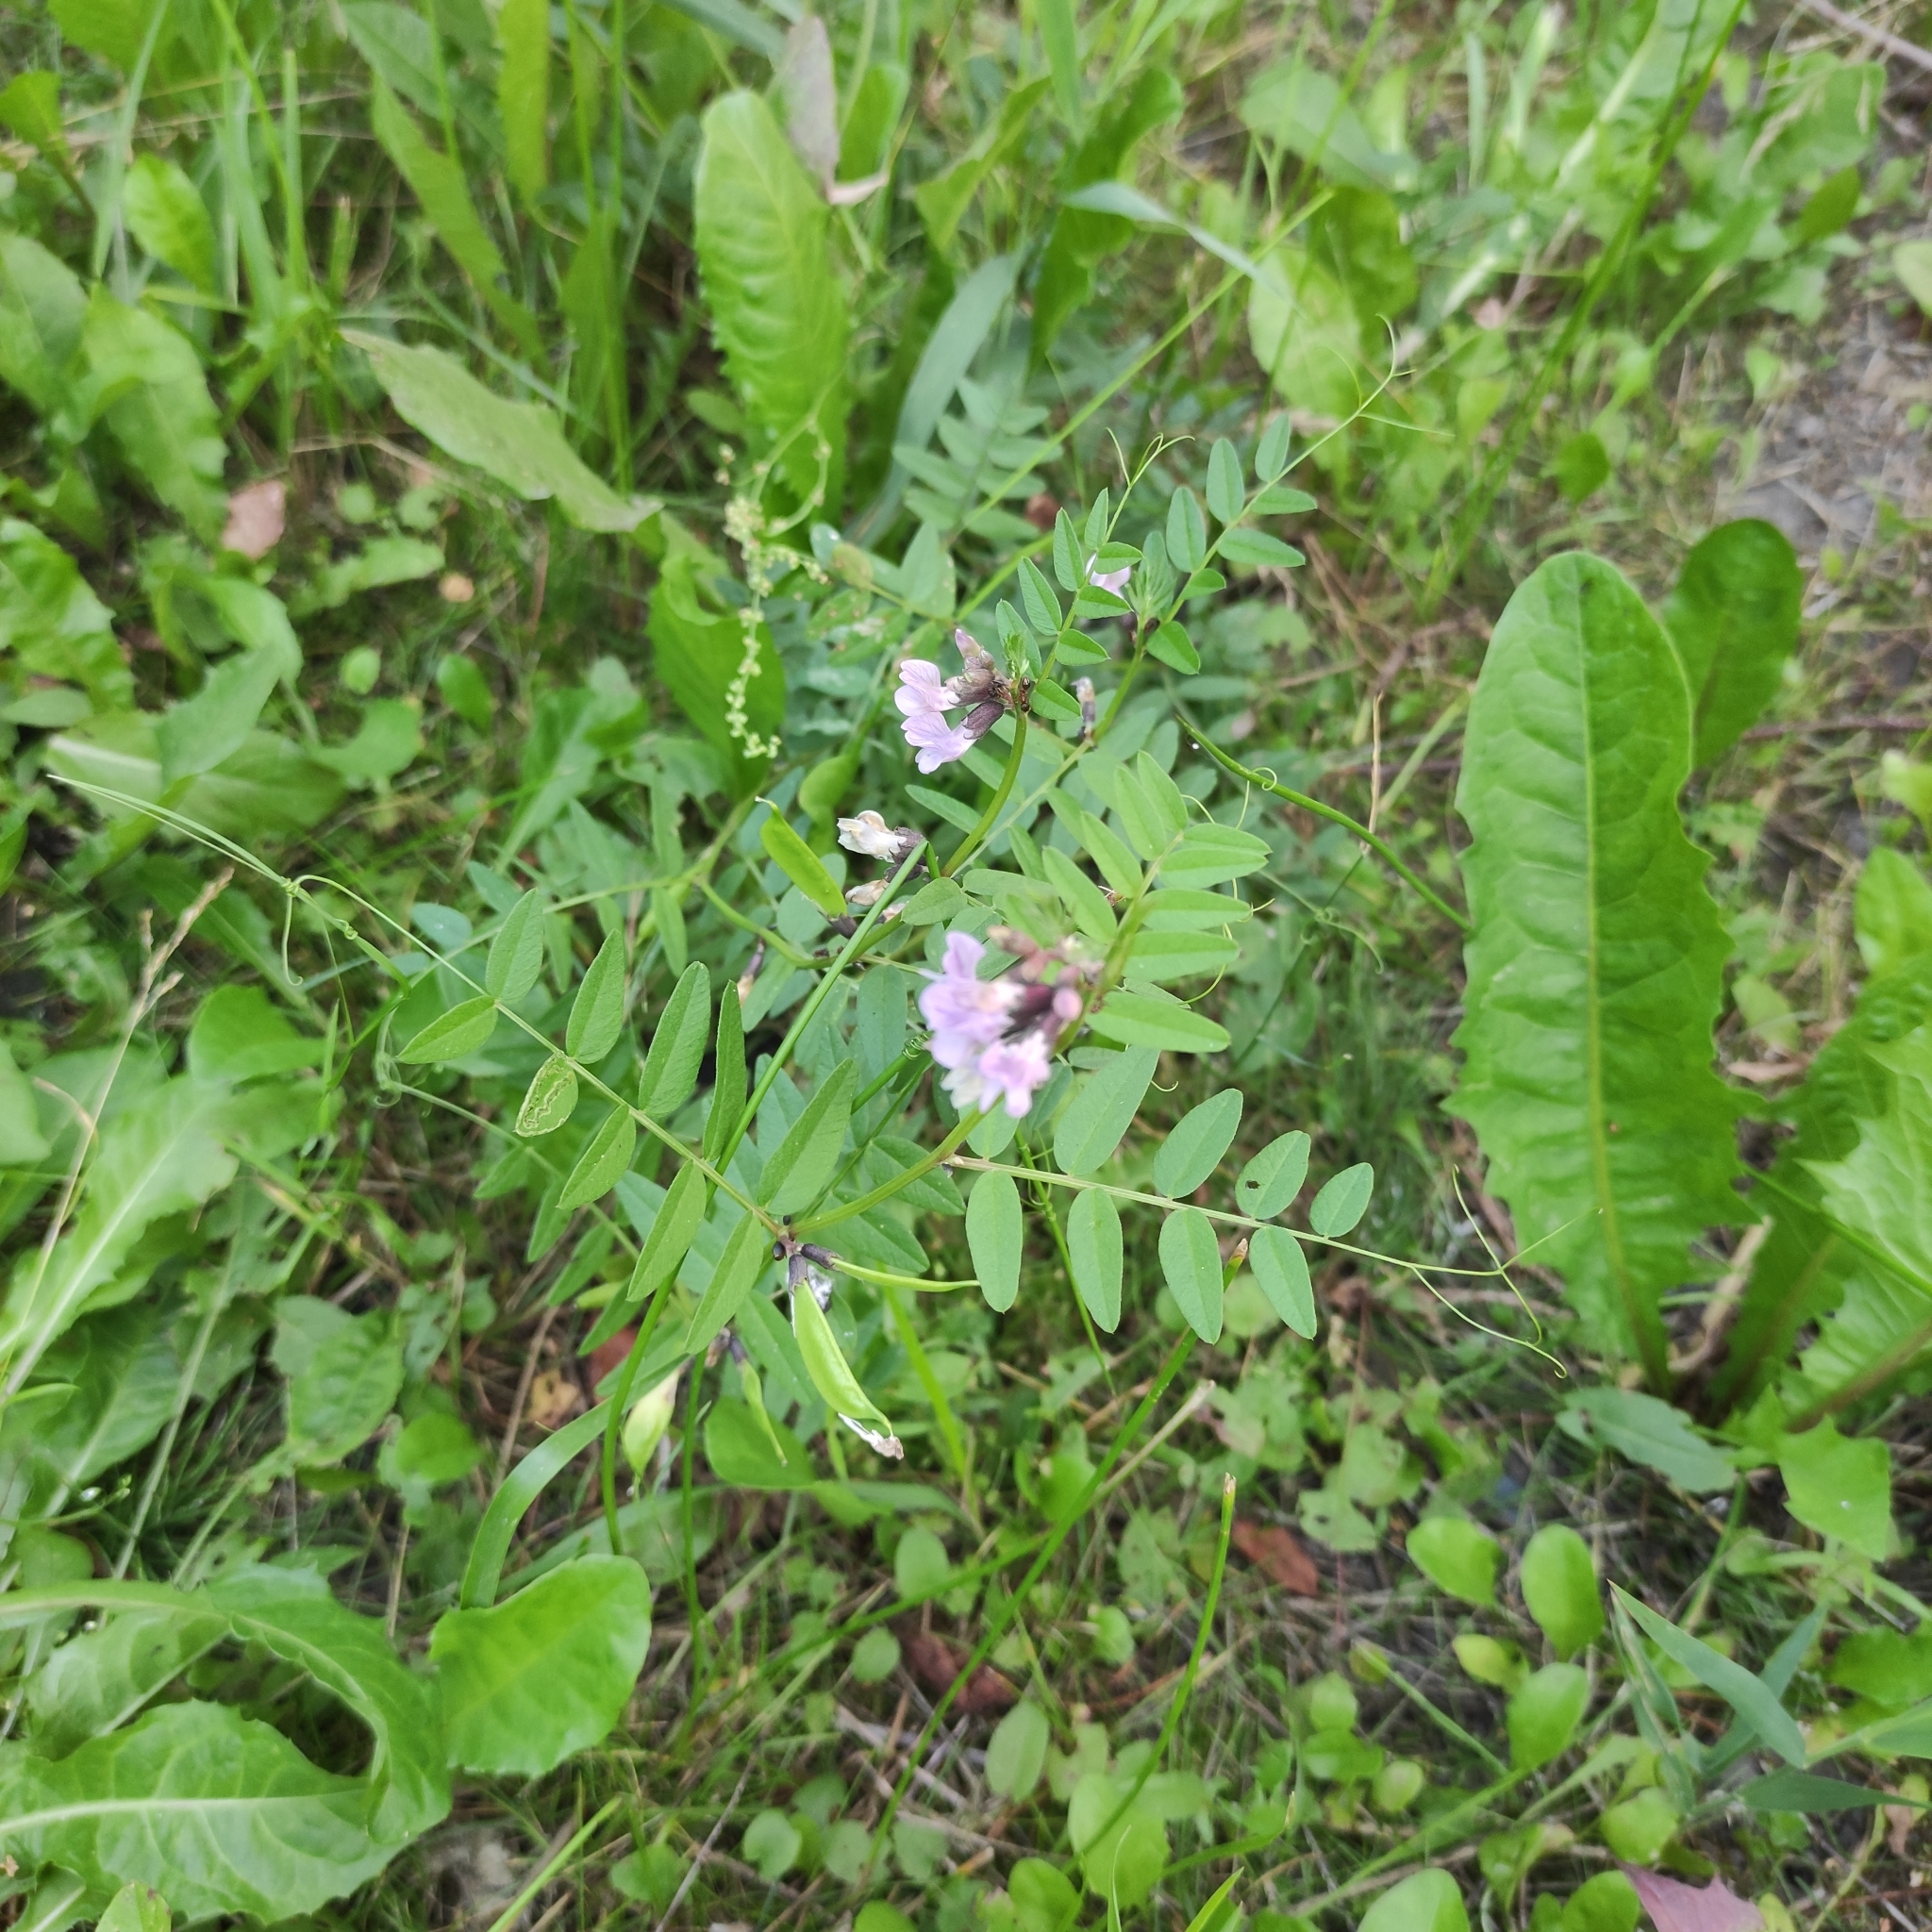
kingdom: Plantae
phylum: Tracheophyta
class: Magnoliopsida
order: Fabales
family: Fabaceae
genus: Vicia
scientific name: Vicia sepium
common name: Bush vetch
